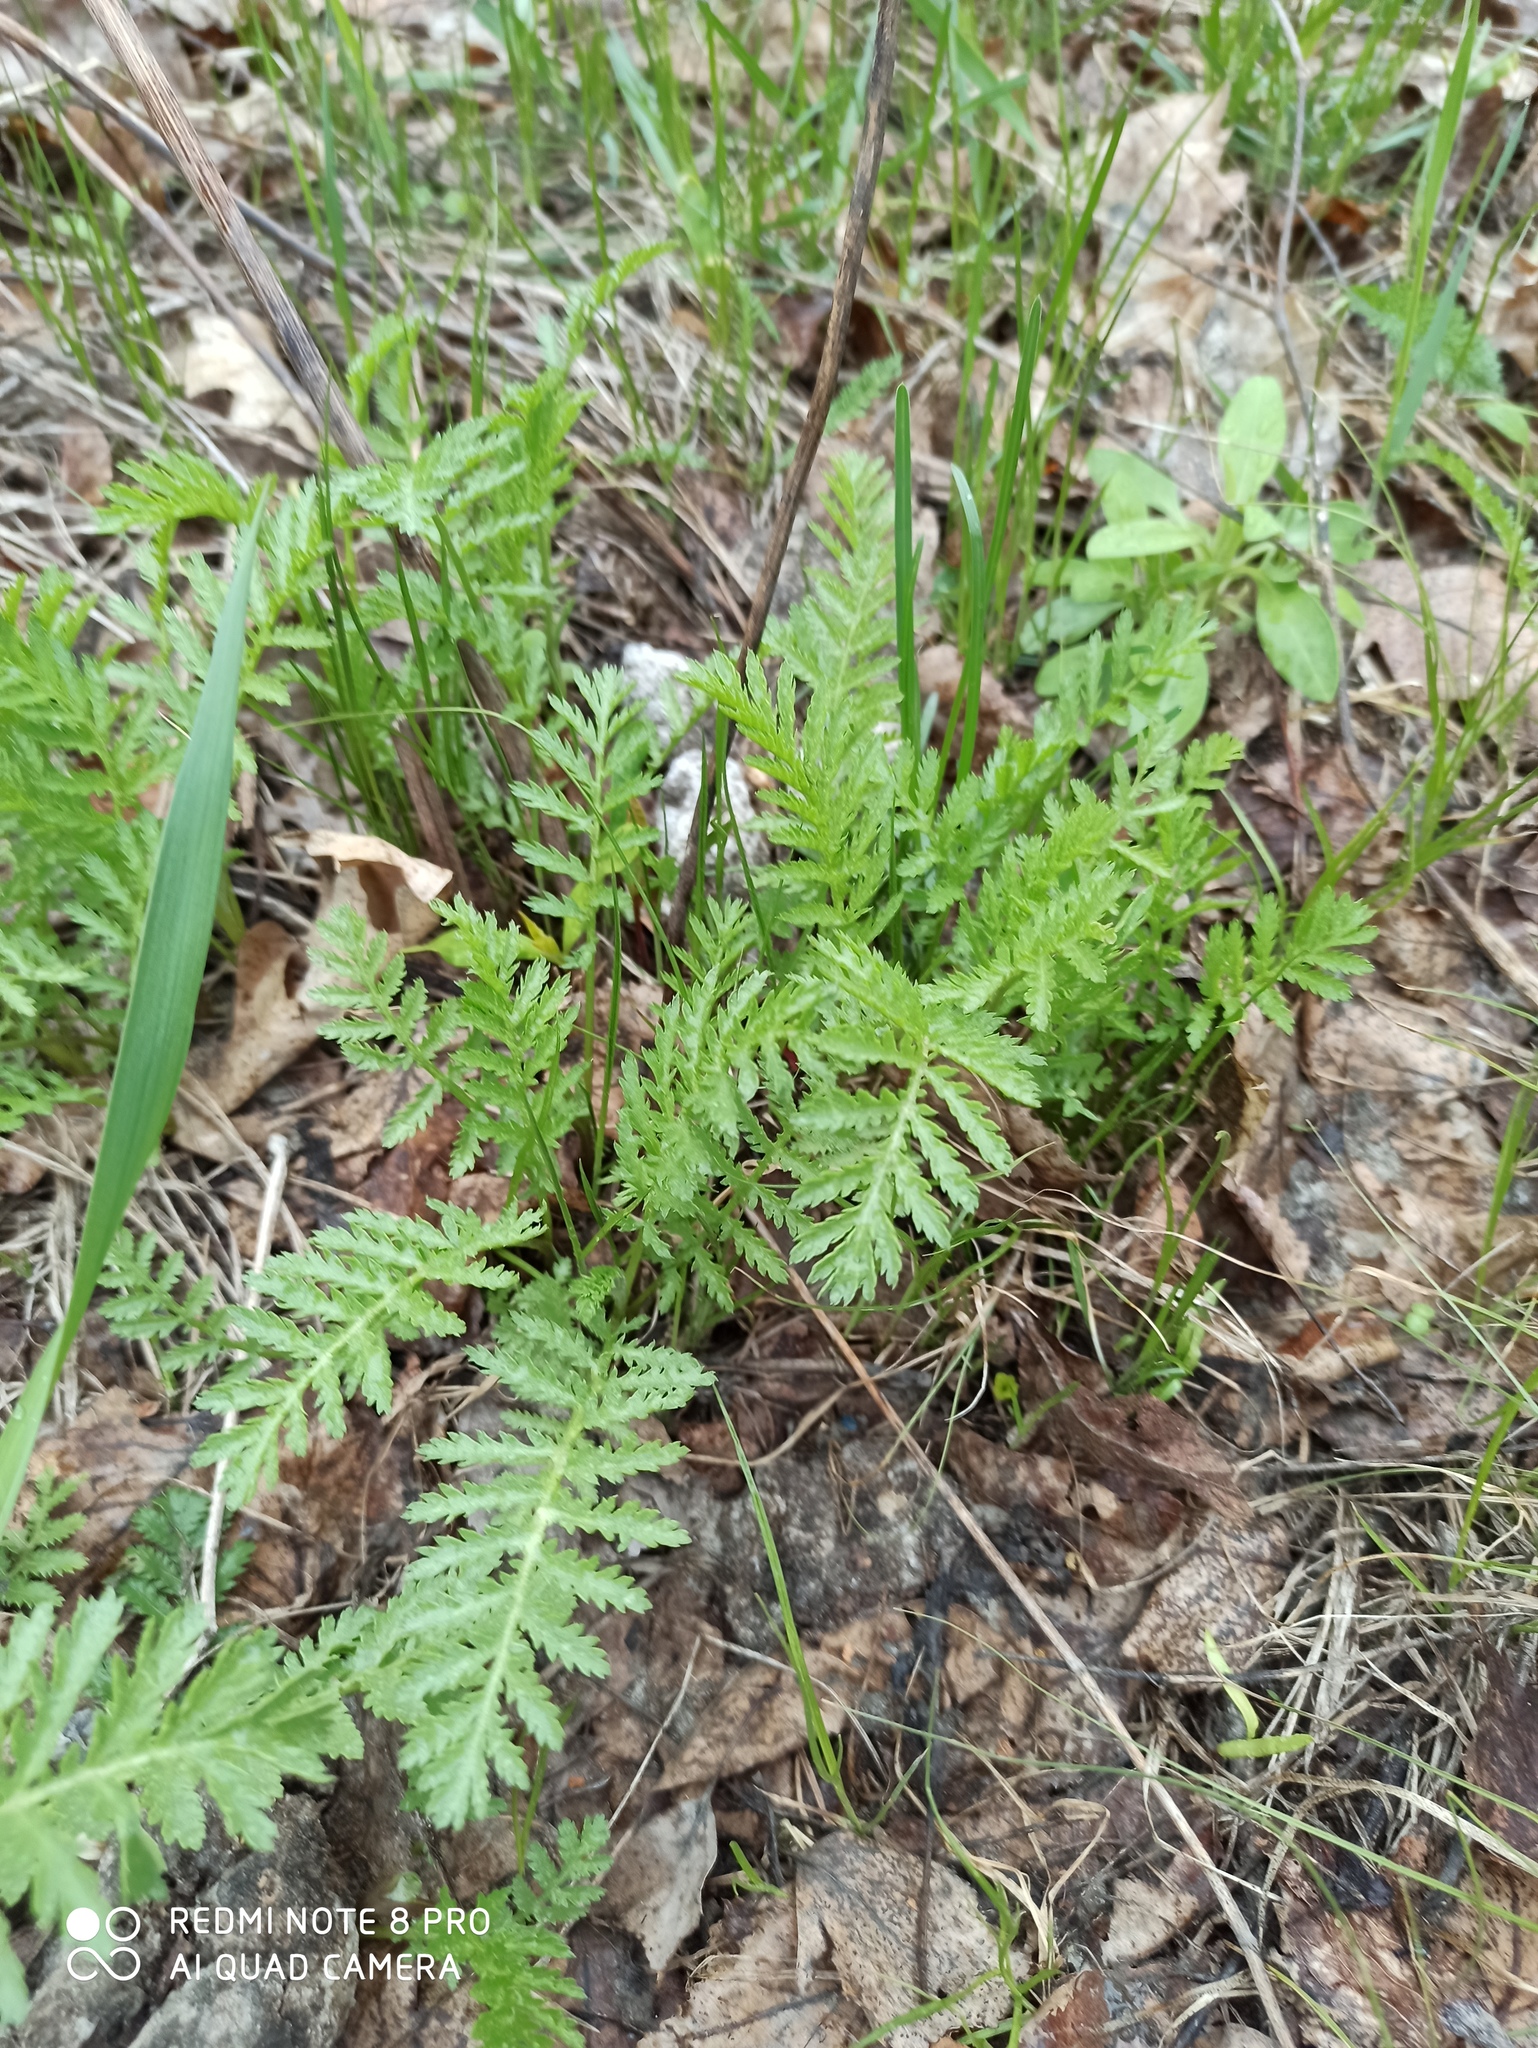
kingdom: Plantae
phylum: Tracheophyta
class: Magnoliopsida
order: Asterales
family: Asteraceae
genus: Tanacetum
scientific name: Tanacetum vulgare
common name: Common tansy
